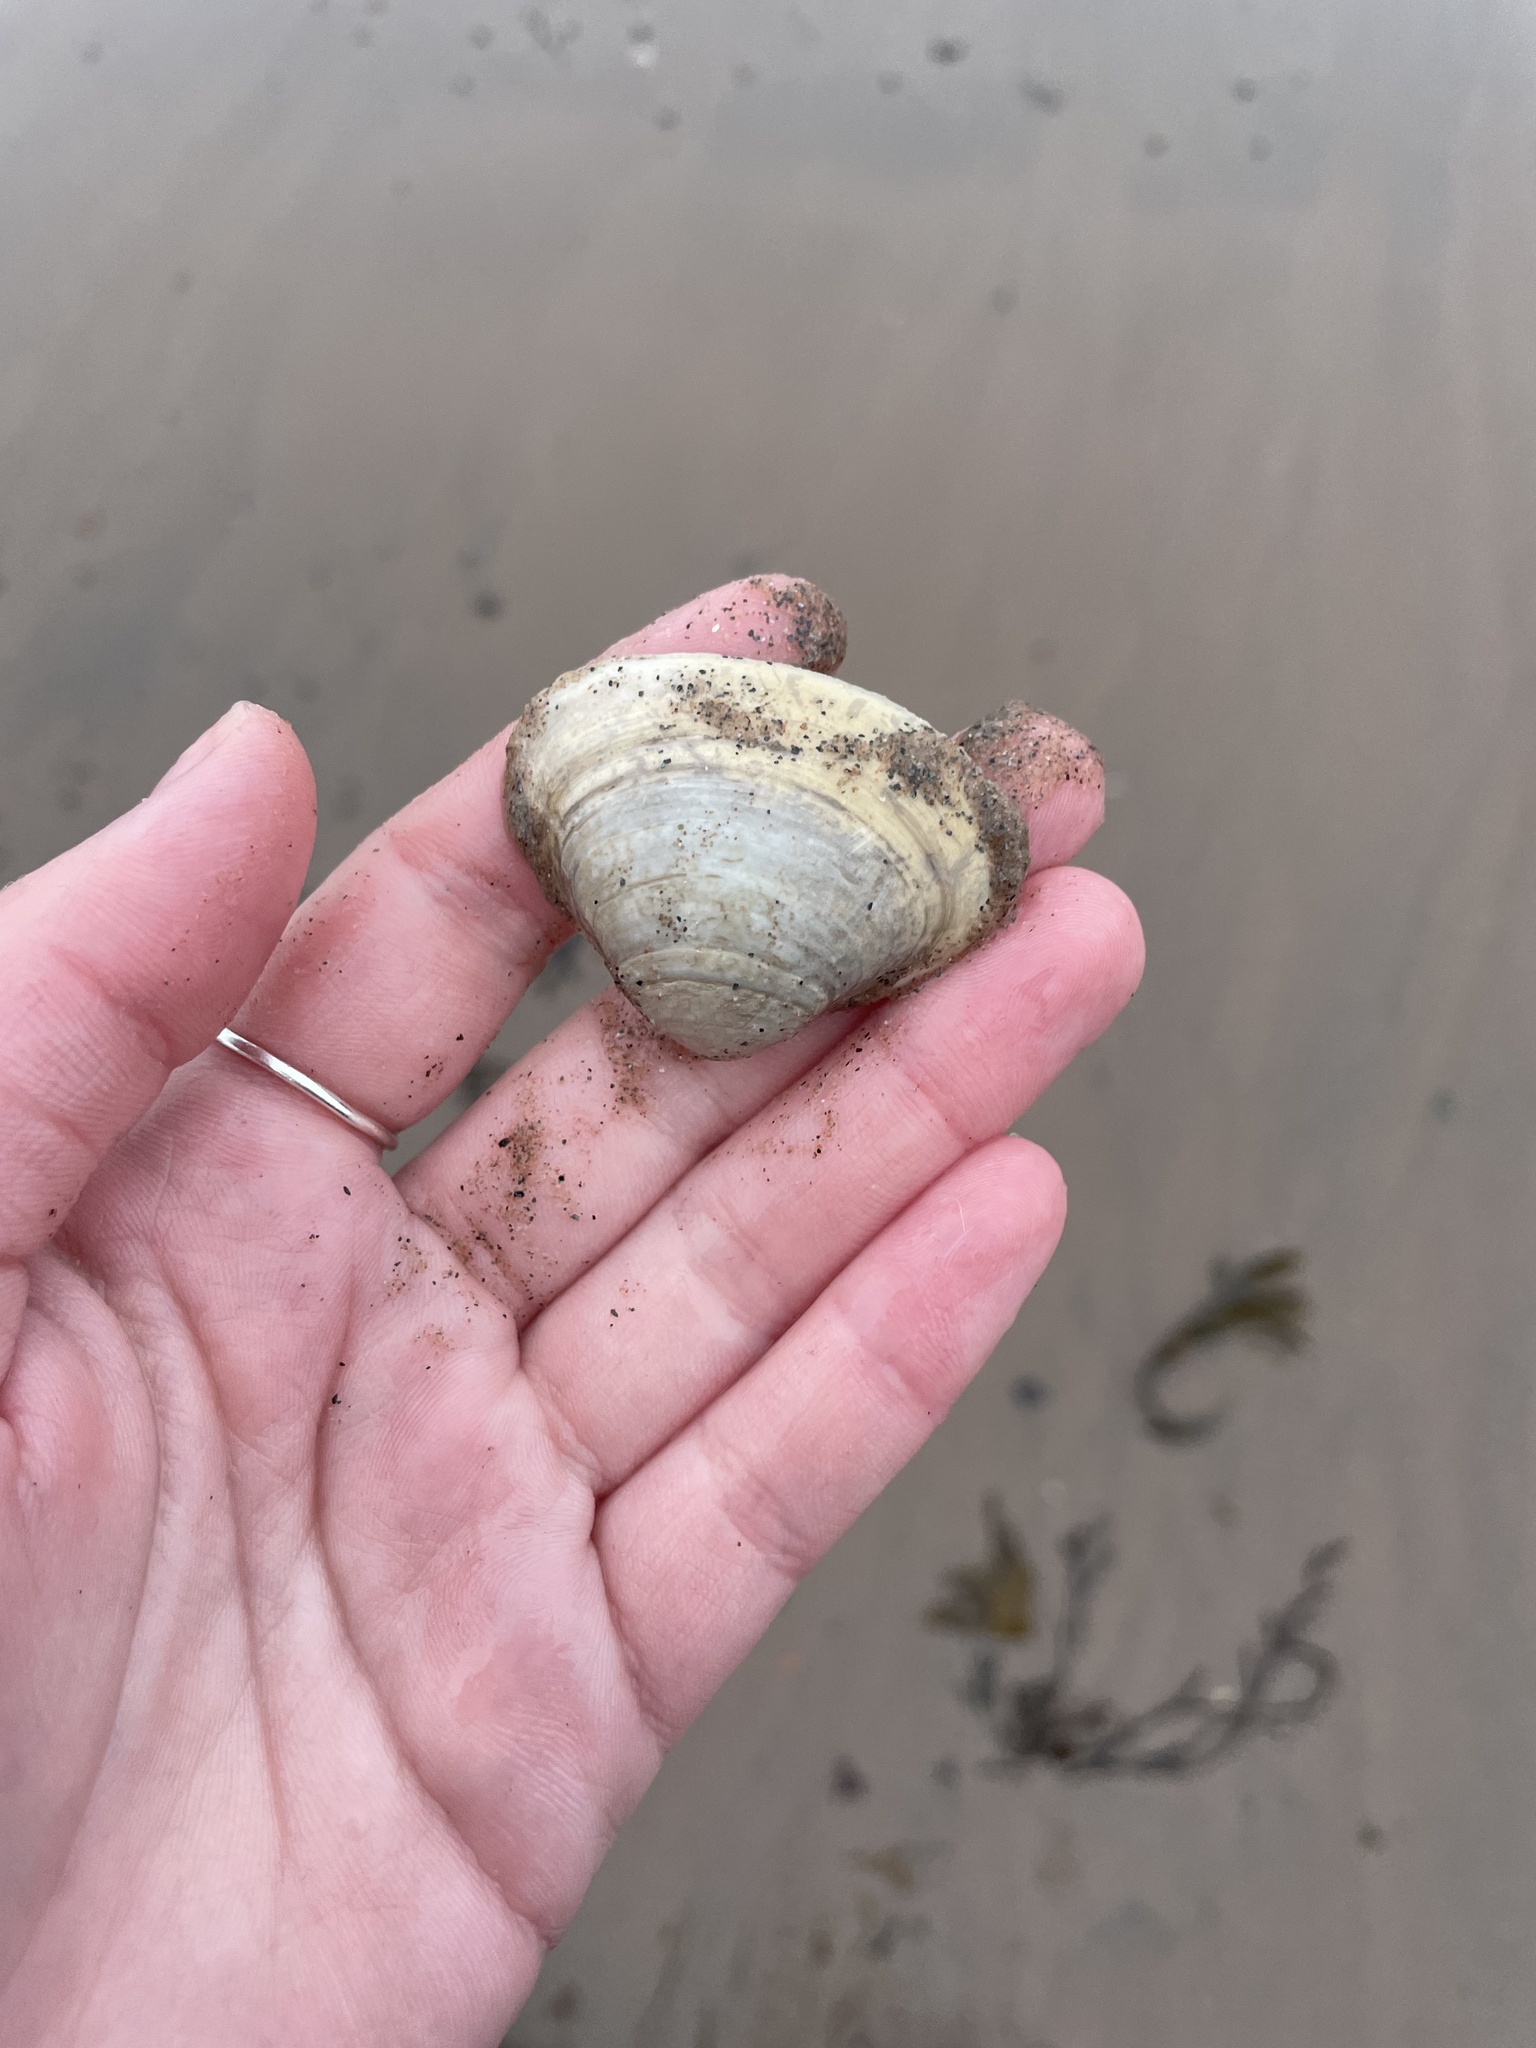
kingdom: Animalia
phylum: Mollusca
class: Bivalvia
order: Venerida
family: Mactridae
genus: Spisula
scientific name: Spisula solidissima
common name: Atlantic surf clam
